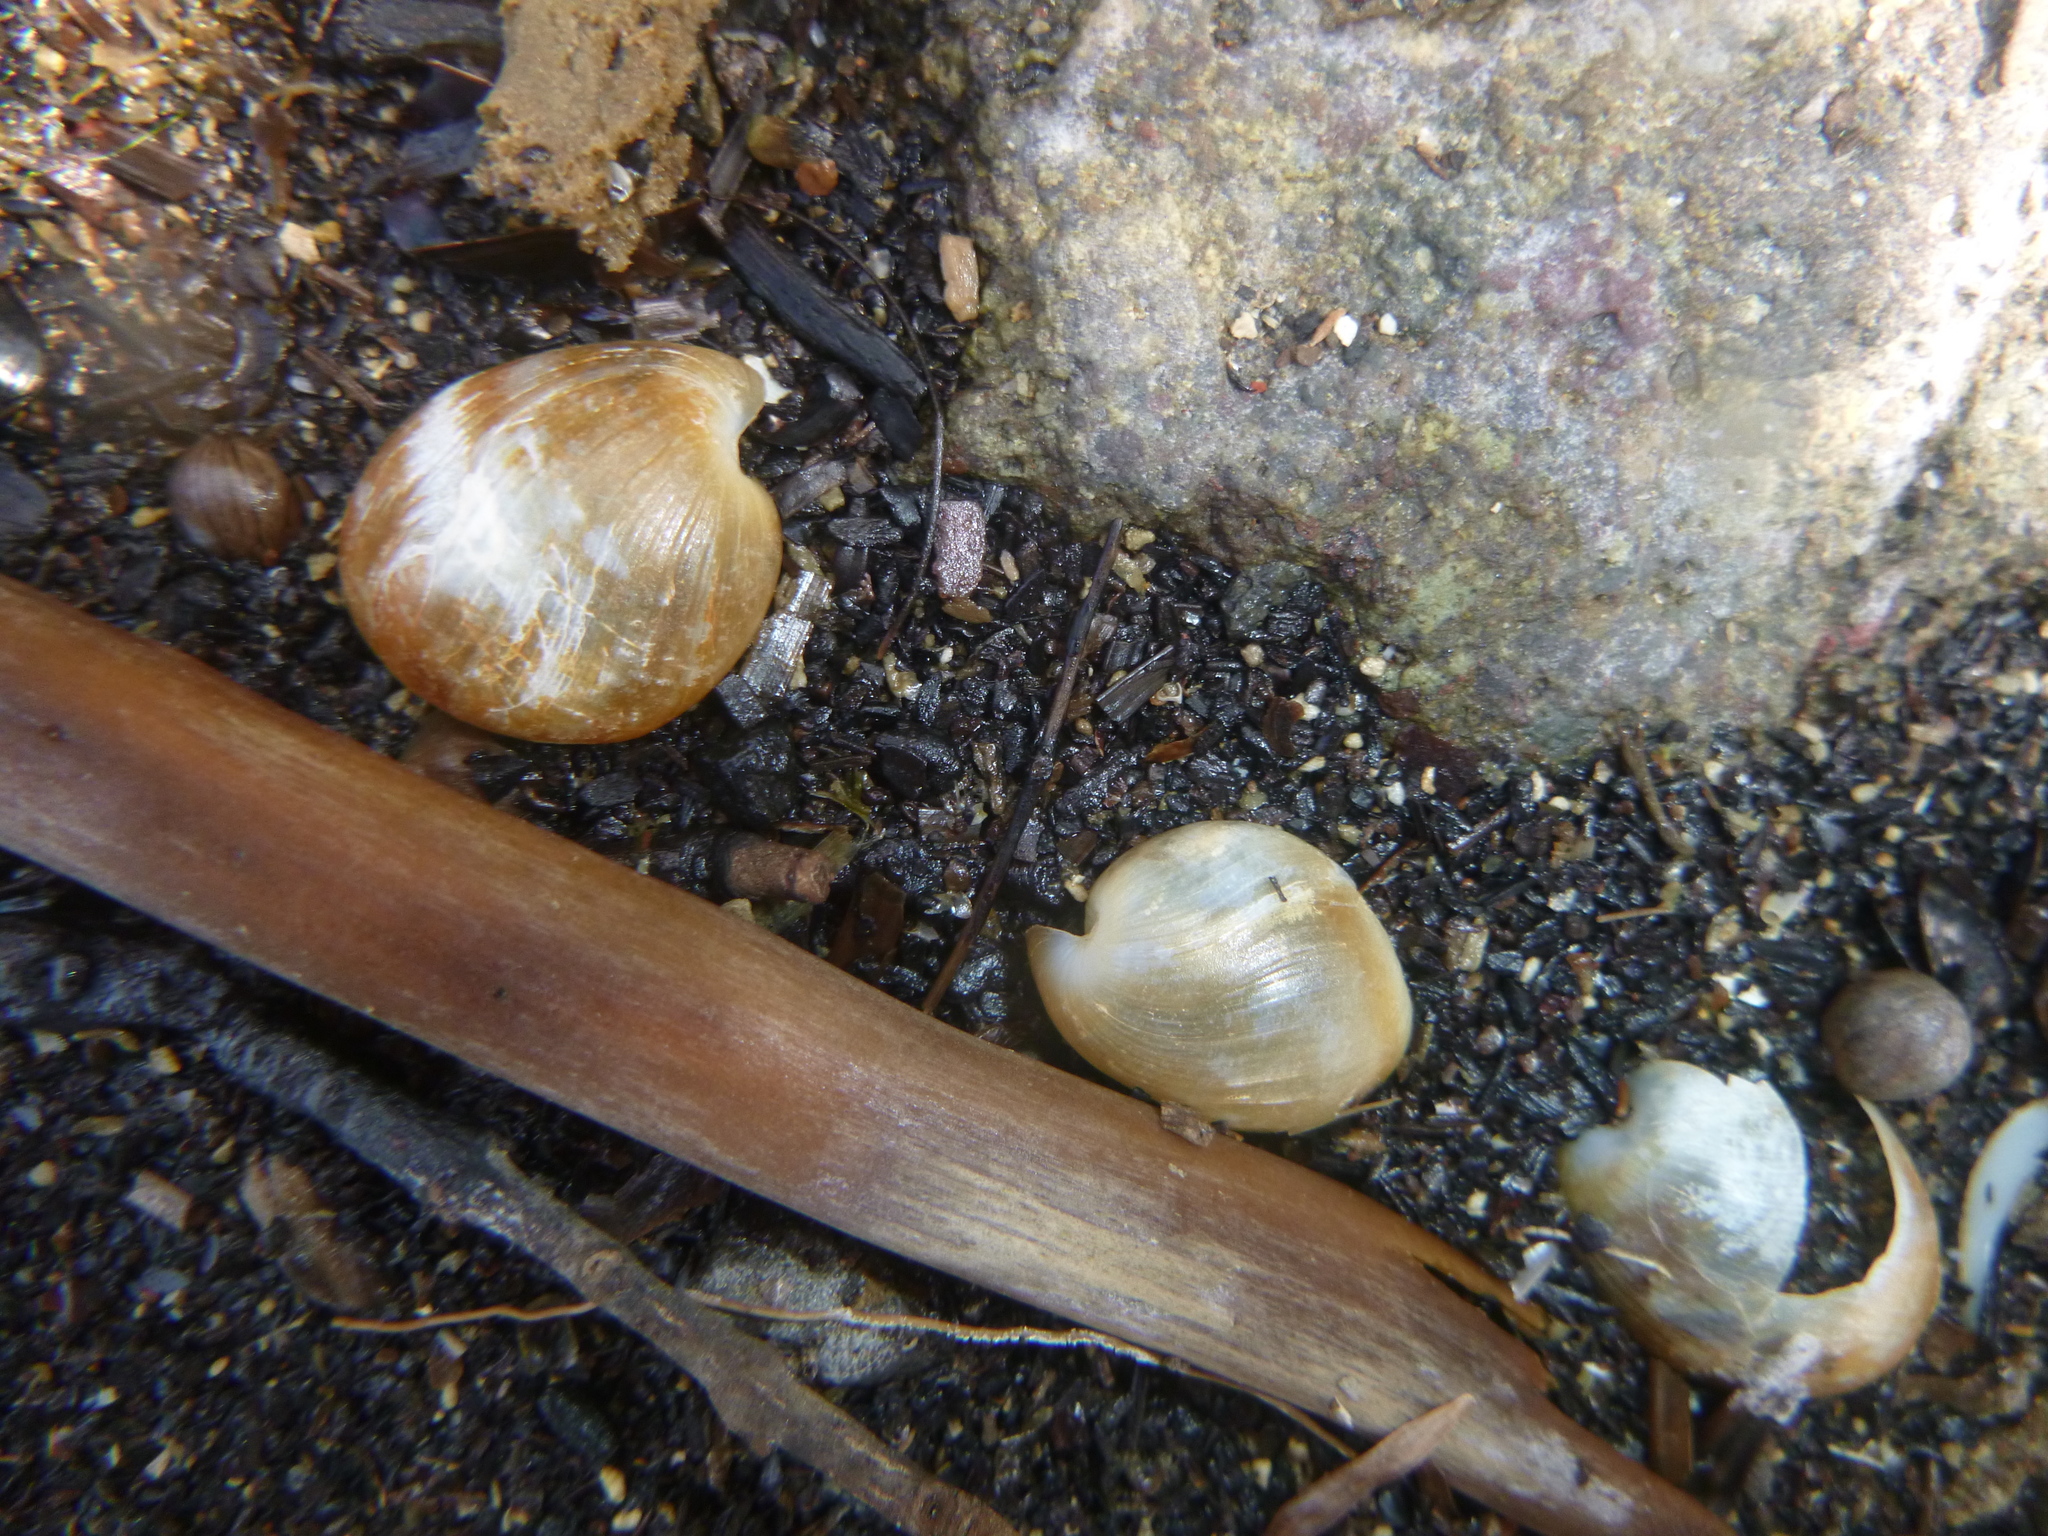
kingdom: Animalia
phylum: Mollusca
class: Gastropoda
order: Cephalaspidea
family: Haminoeidae
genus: Papawera
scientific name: Papawera zelandiae
